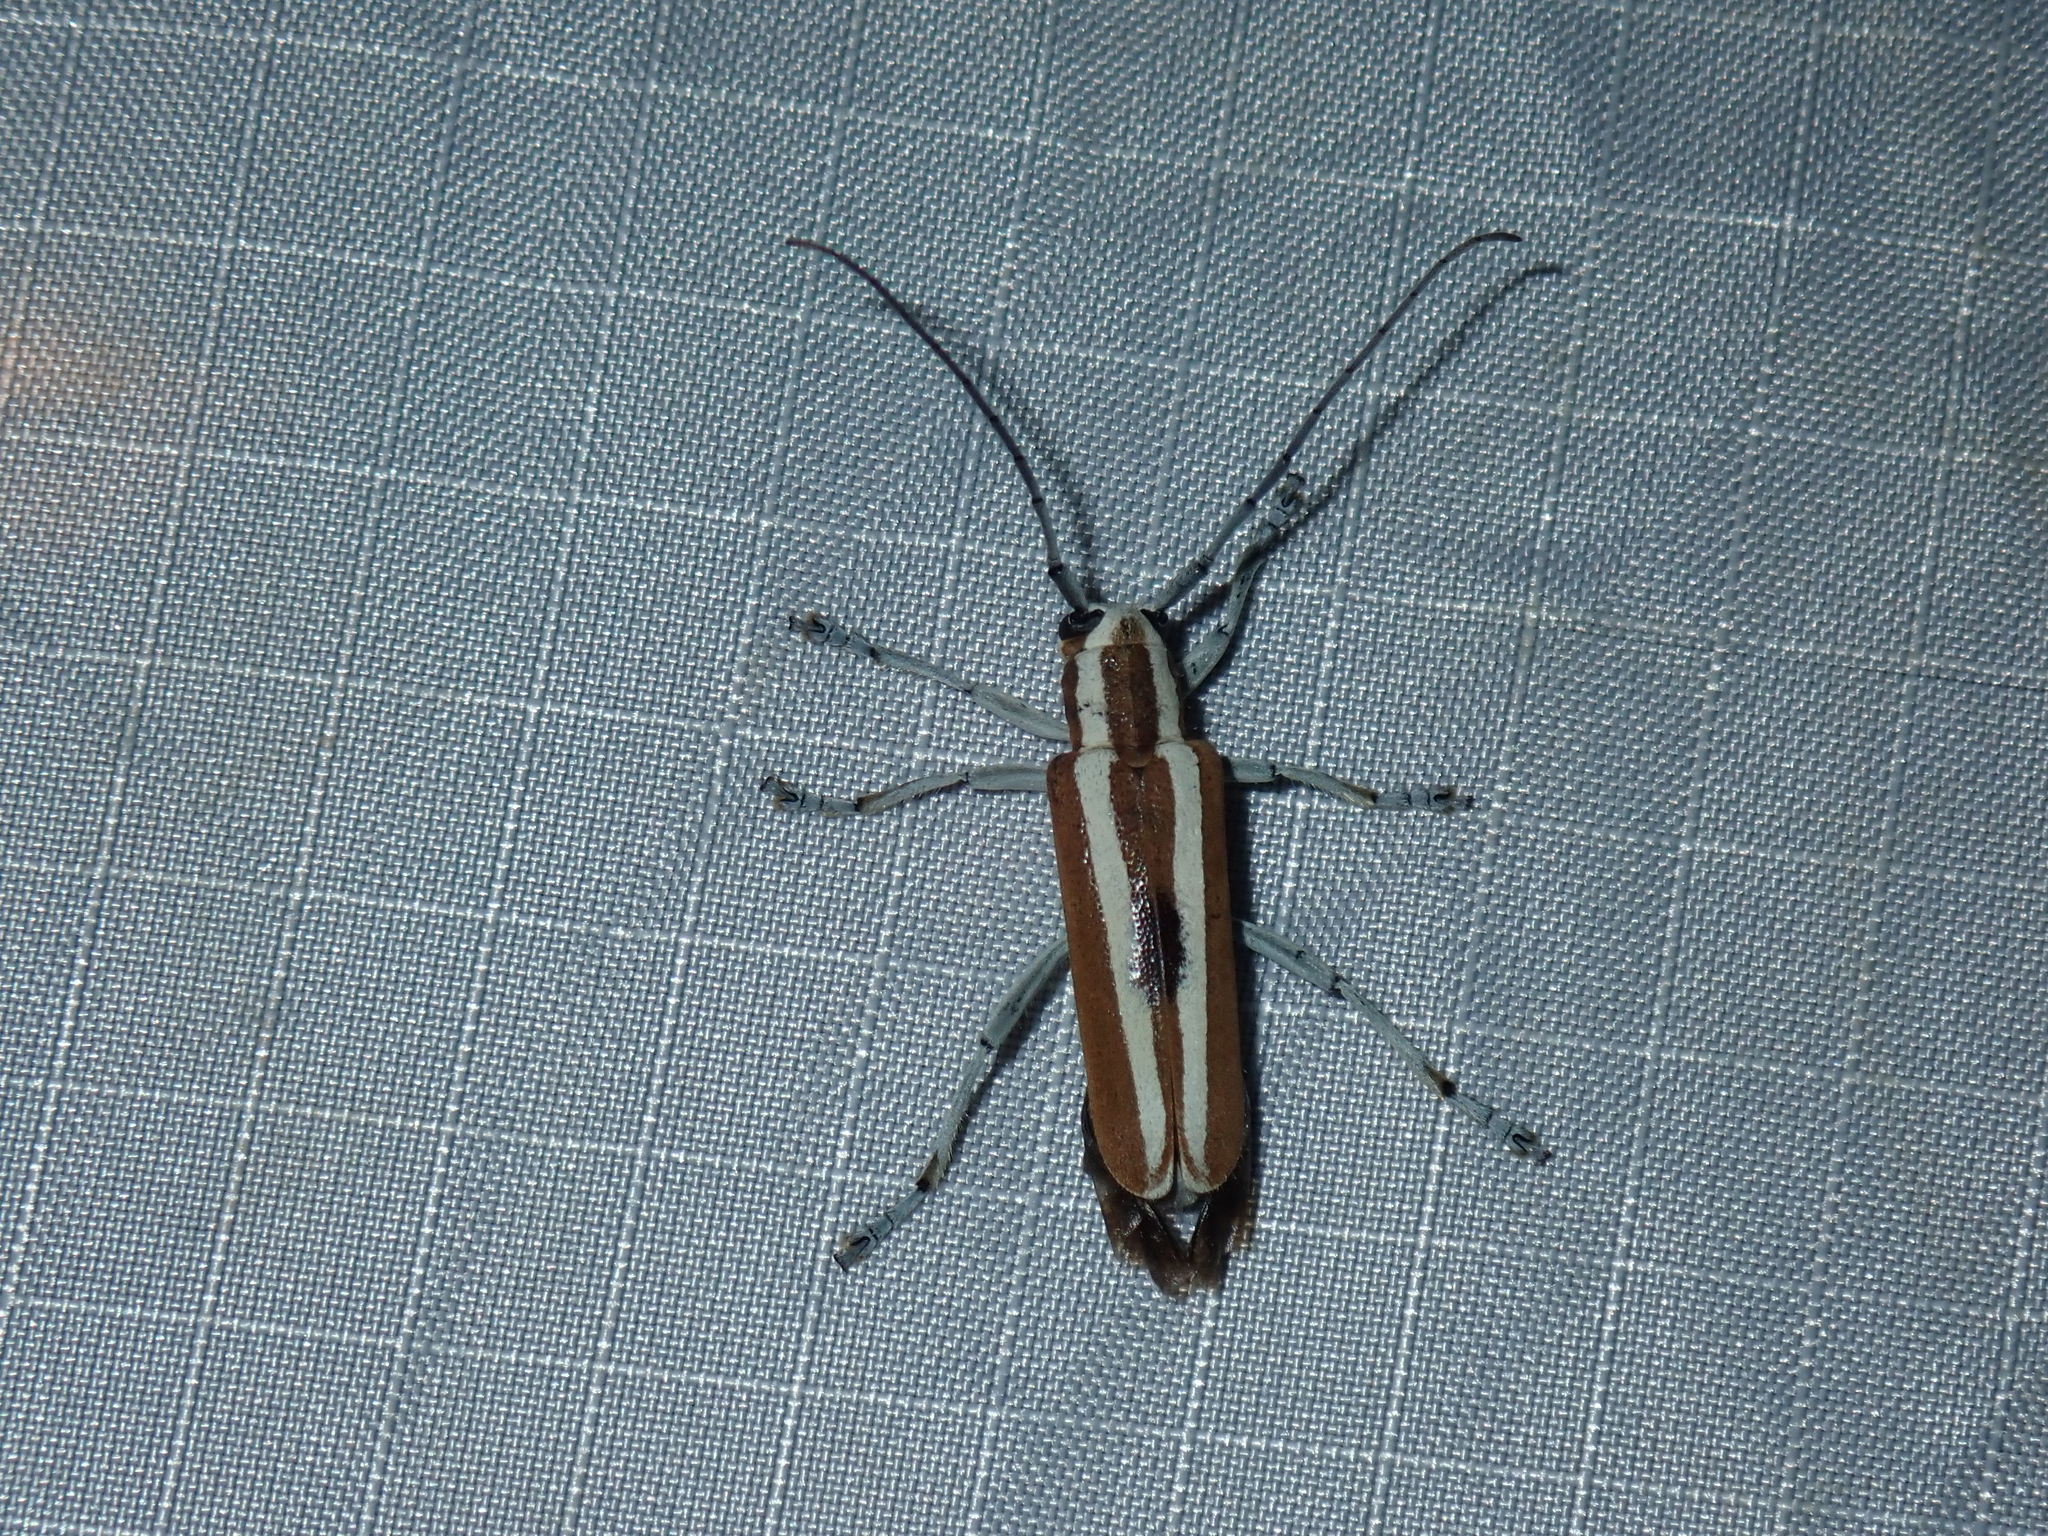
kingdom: Animalia
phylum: Arthropoda
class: Insecta
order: Coleoptera
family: Cerambycidae
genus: Saperda
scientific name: Saperda candida
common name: Round-headed borer
